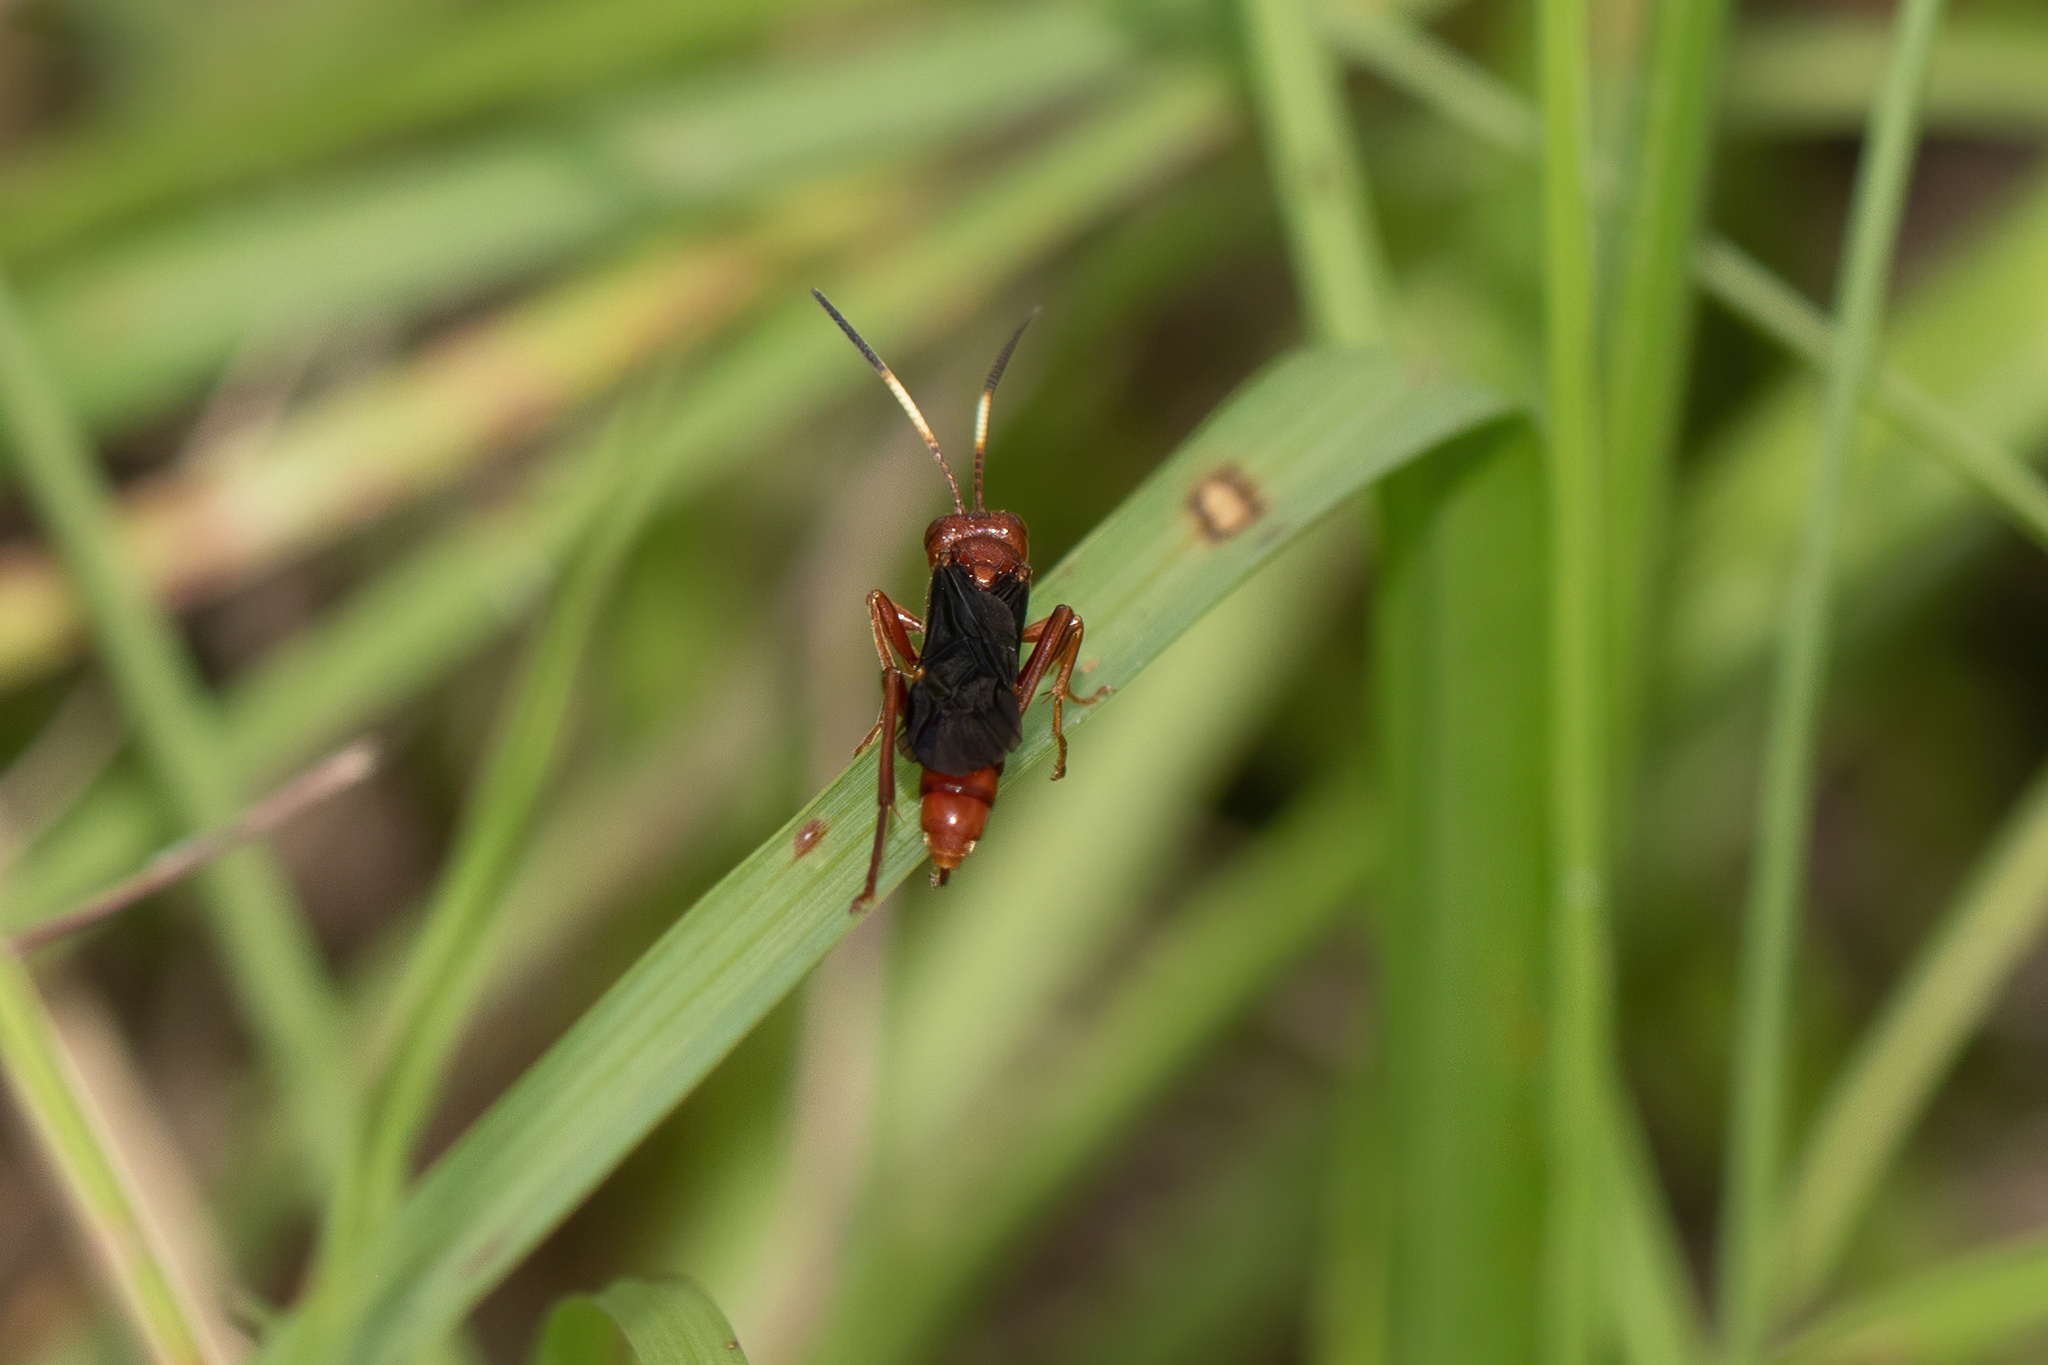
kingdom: Animalia
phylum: Arthropoda
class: Insecta
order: Hymenoptera
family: Ichneumonidae
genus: Trogomorpha
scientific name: Trogomorpha trogiformis
